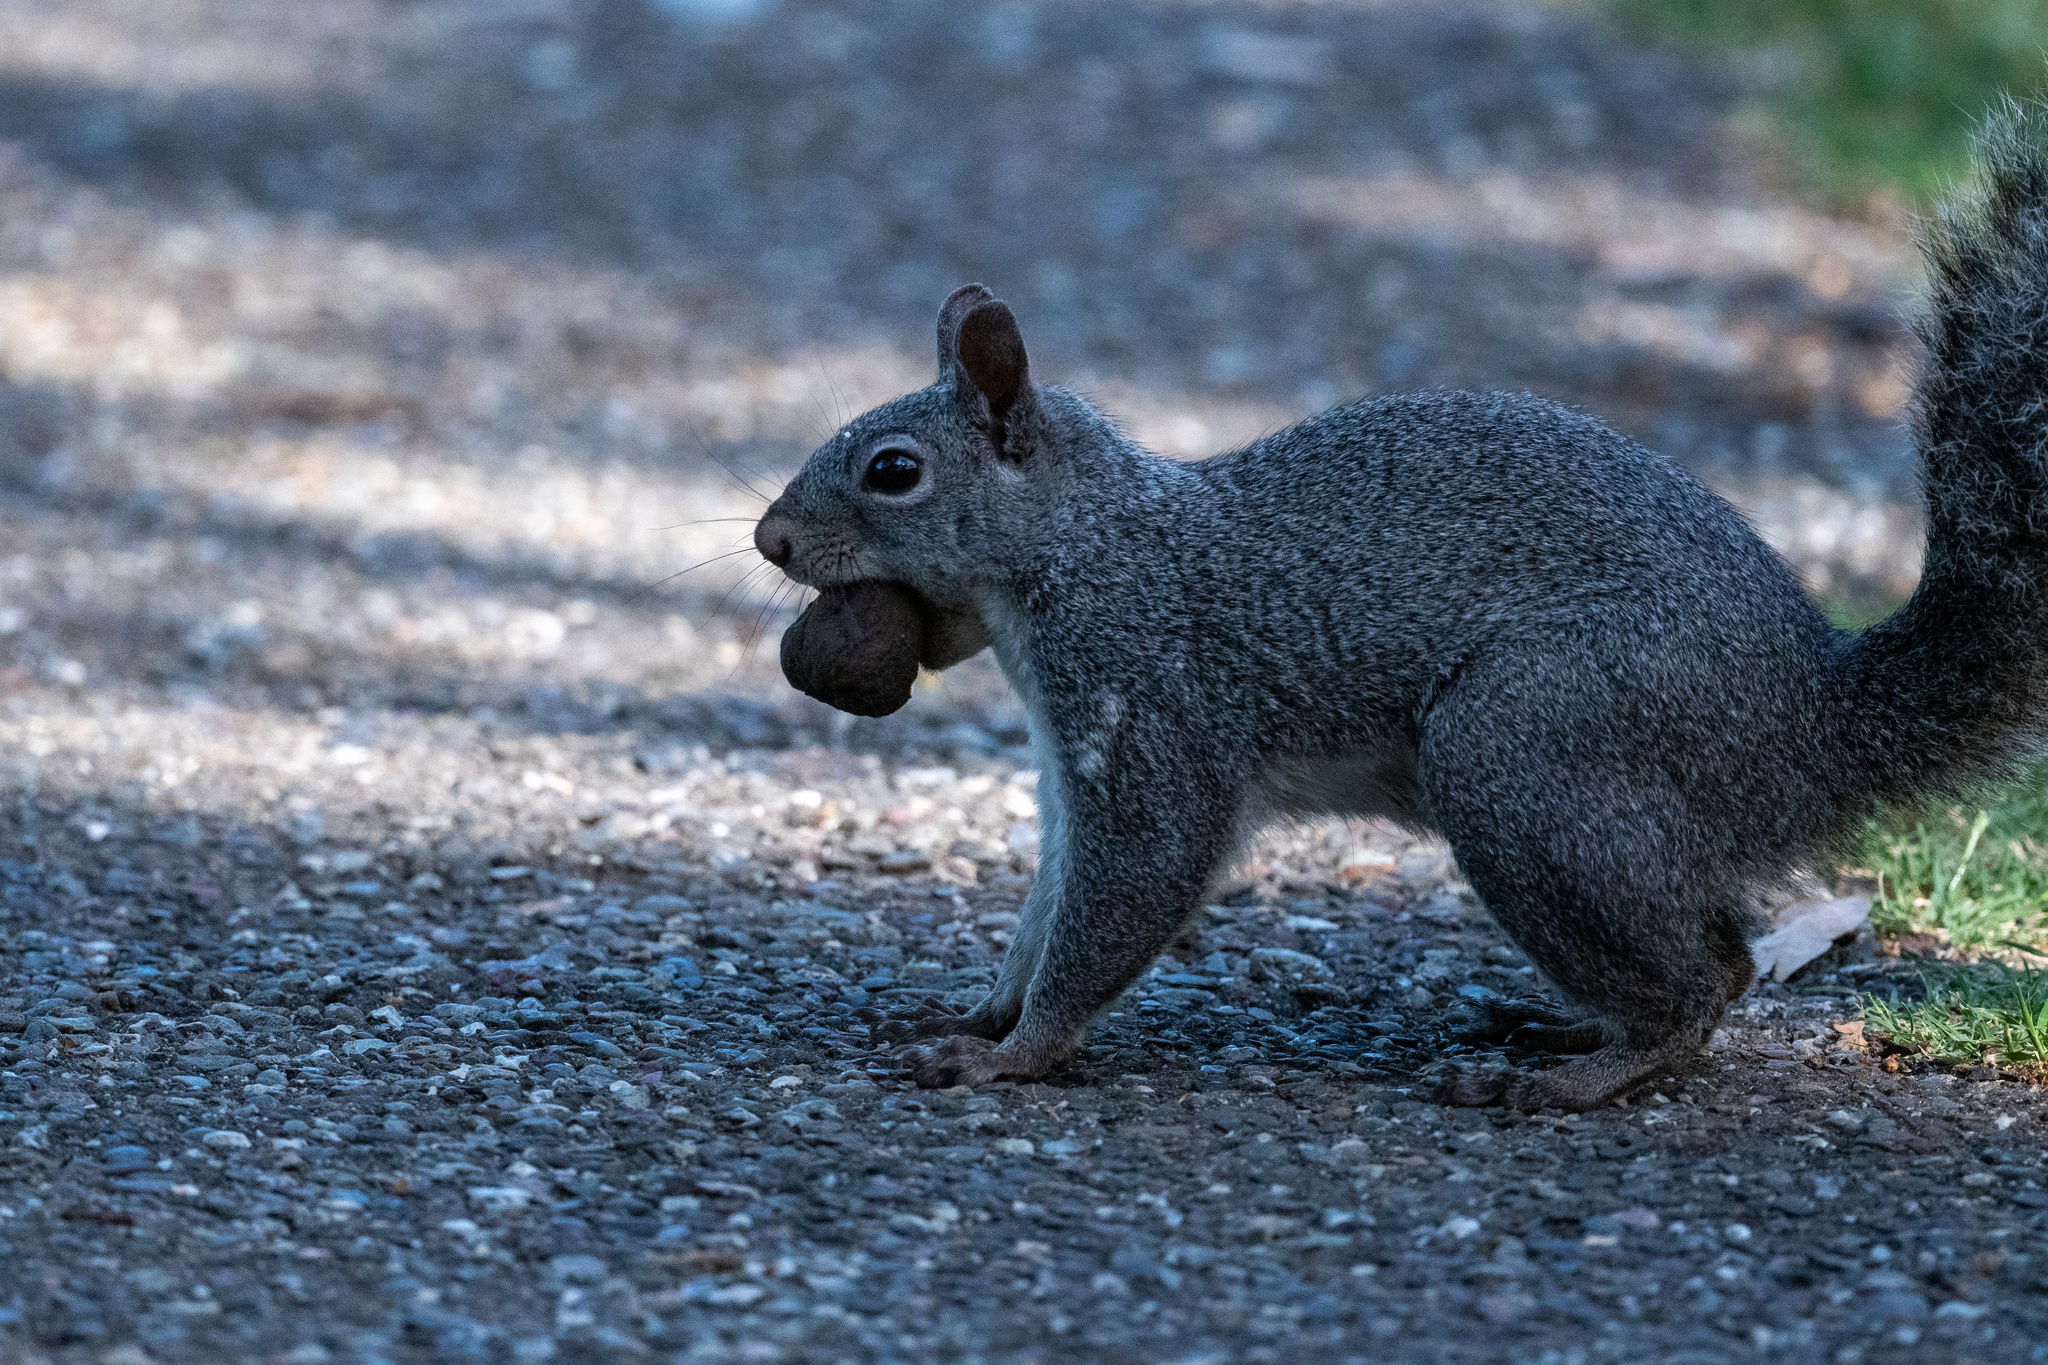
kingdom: Animalia
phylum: Chordata
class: Mammalia
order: Rodentia
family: Sciuridae
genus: Sciurus
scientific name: Sciurus griseus
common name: Western gray squirrel
